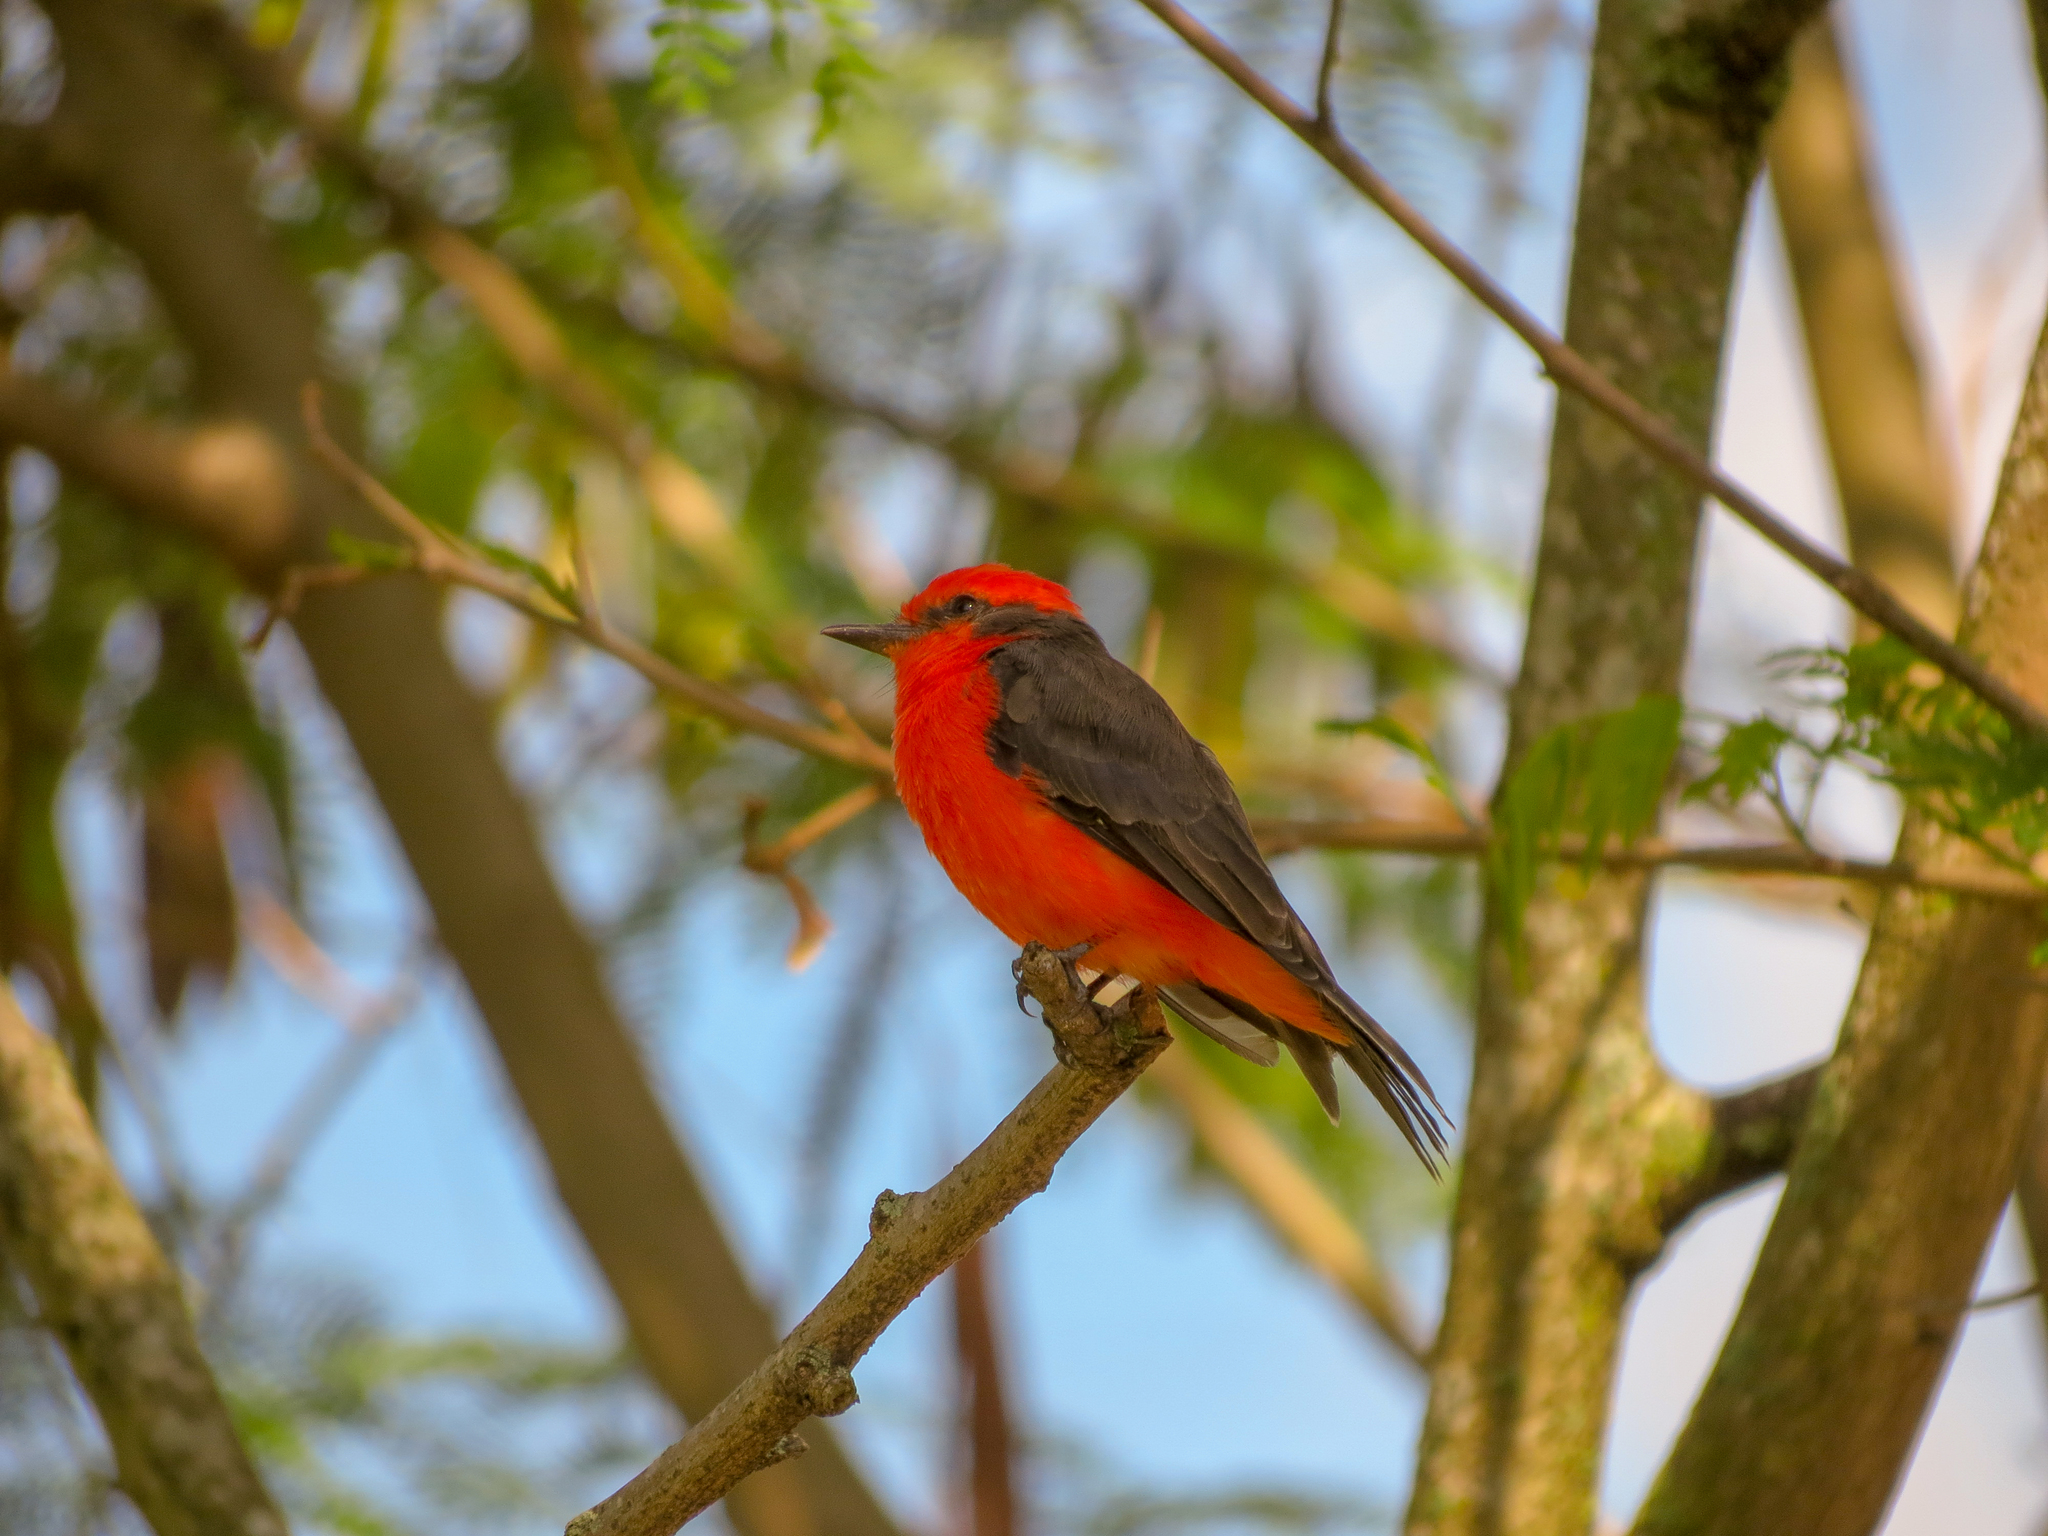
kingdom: Animalia
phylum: Chordata
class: Aves
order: Passeriformes
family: Tyrannidae
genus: Pyrocephalus
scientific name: Pyrocephalus rubinus
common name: Vermilion flycatcher
